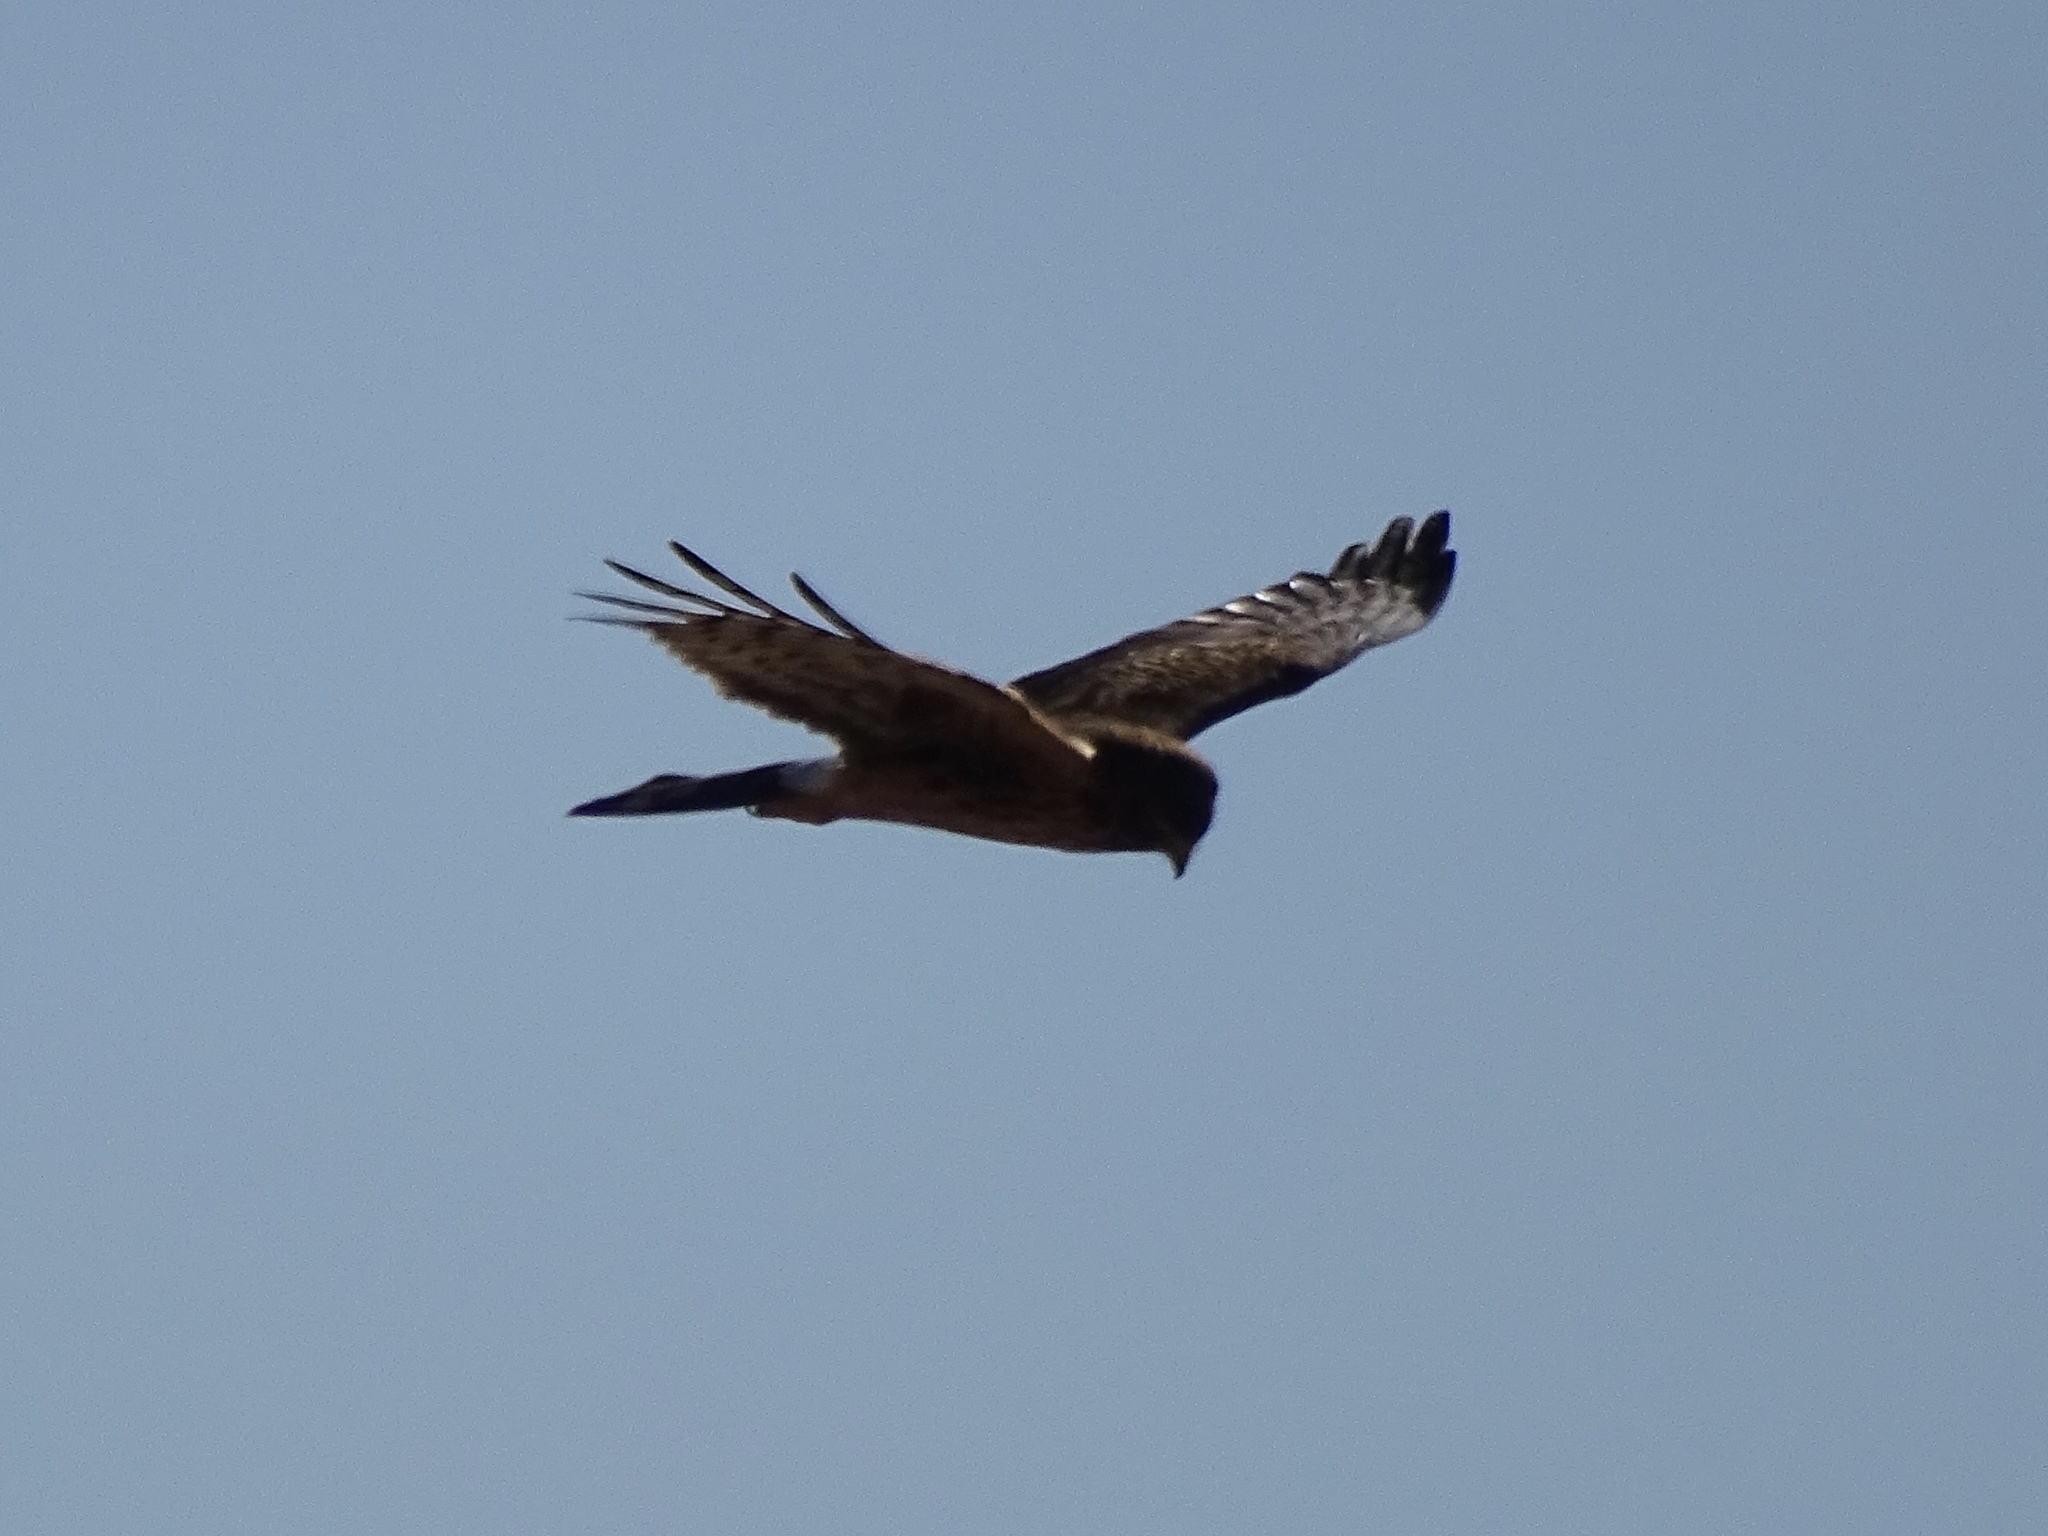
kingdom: Animalia
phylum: Chordata
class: Aves
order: Accipitriformes
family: Accipitridae
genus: Circus
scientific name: Circus cyaneus
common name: Hen harrier
